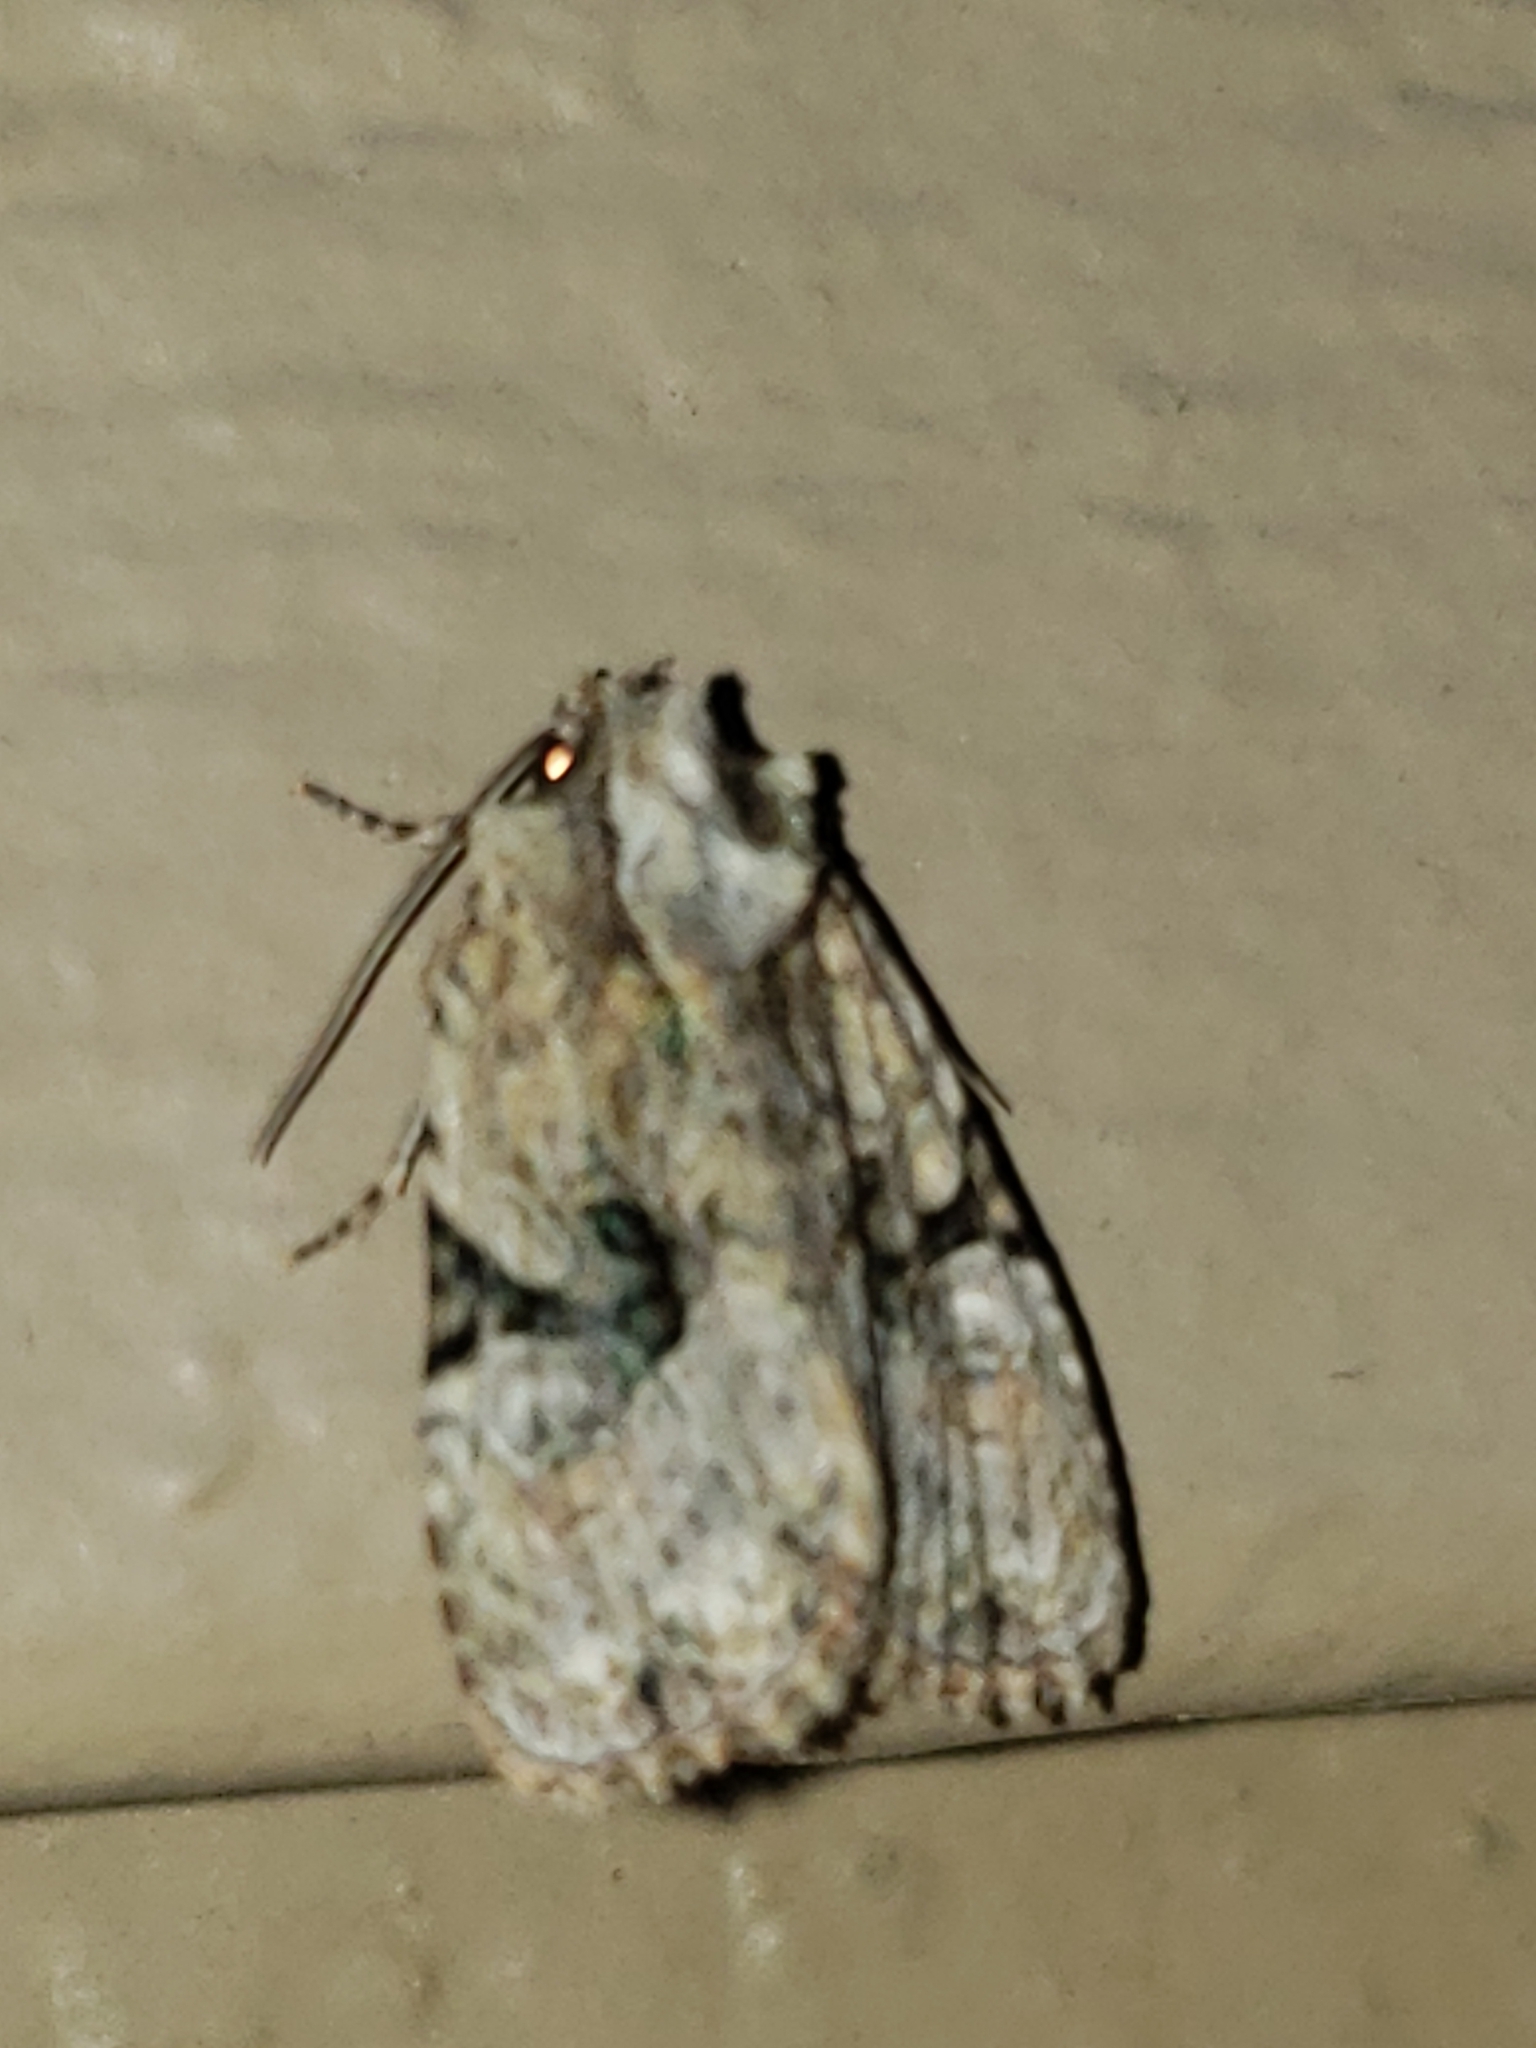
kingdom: Animalia
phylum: Arthropoda
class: Insecta
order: Lepidoptera
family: Noctuidae
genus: Oligia
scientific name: Oligia modica
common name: Black-banded brocade
